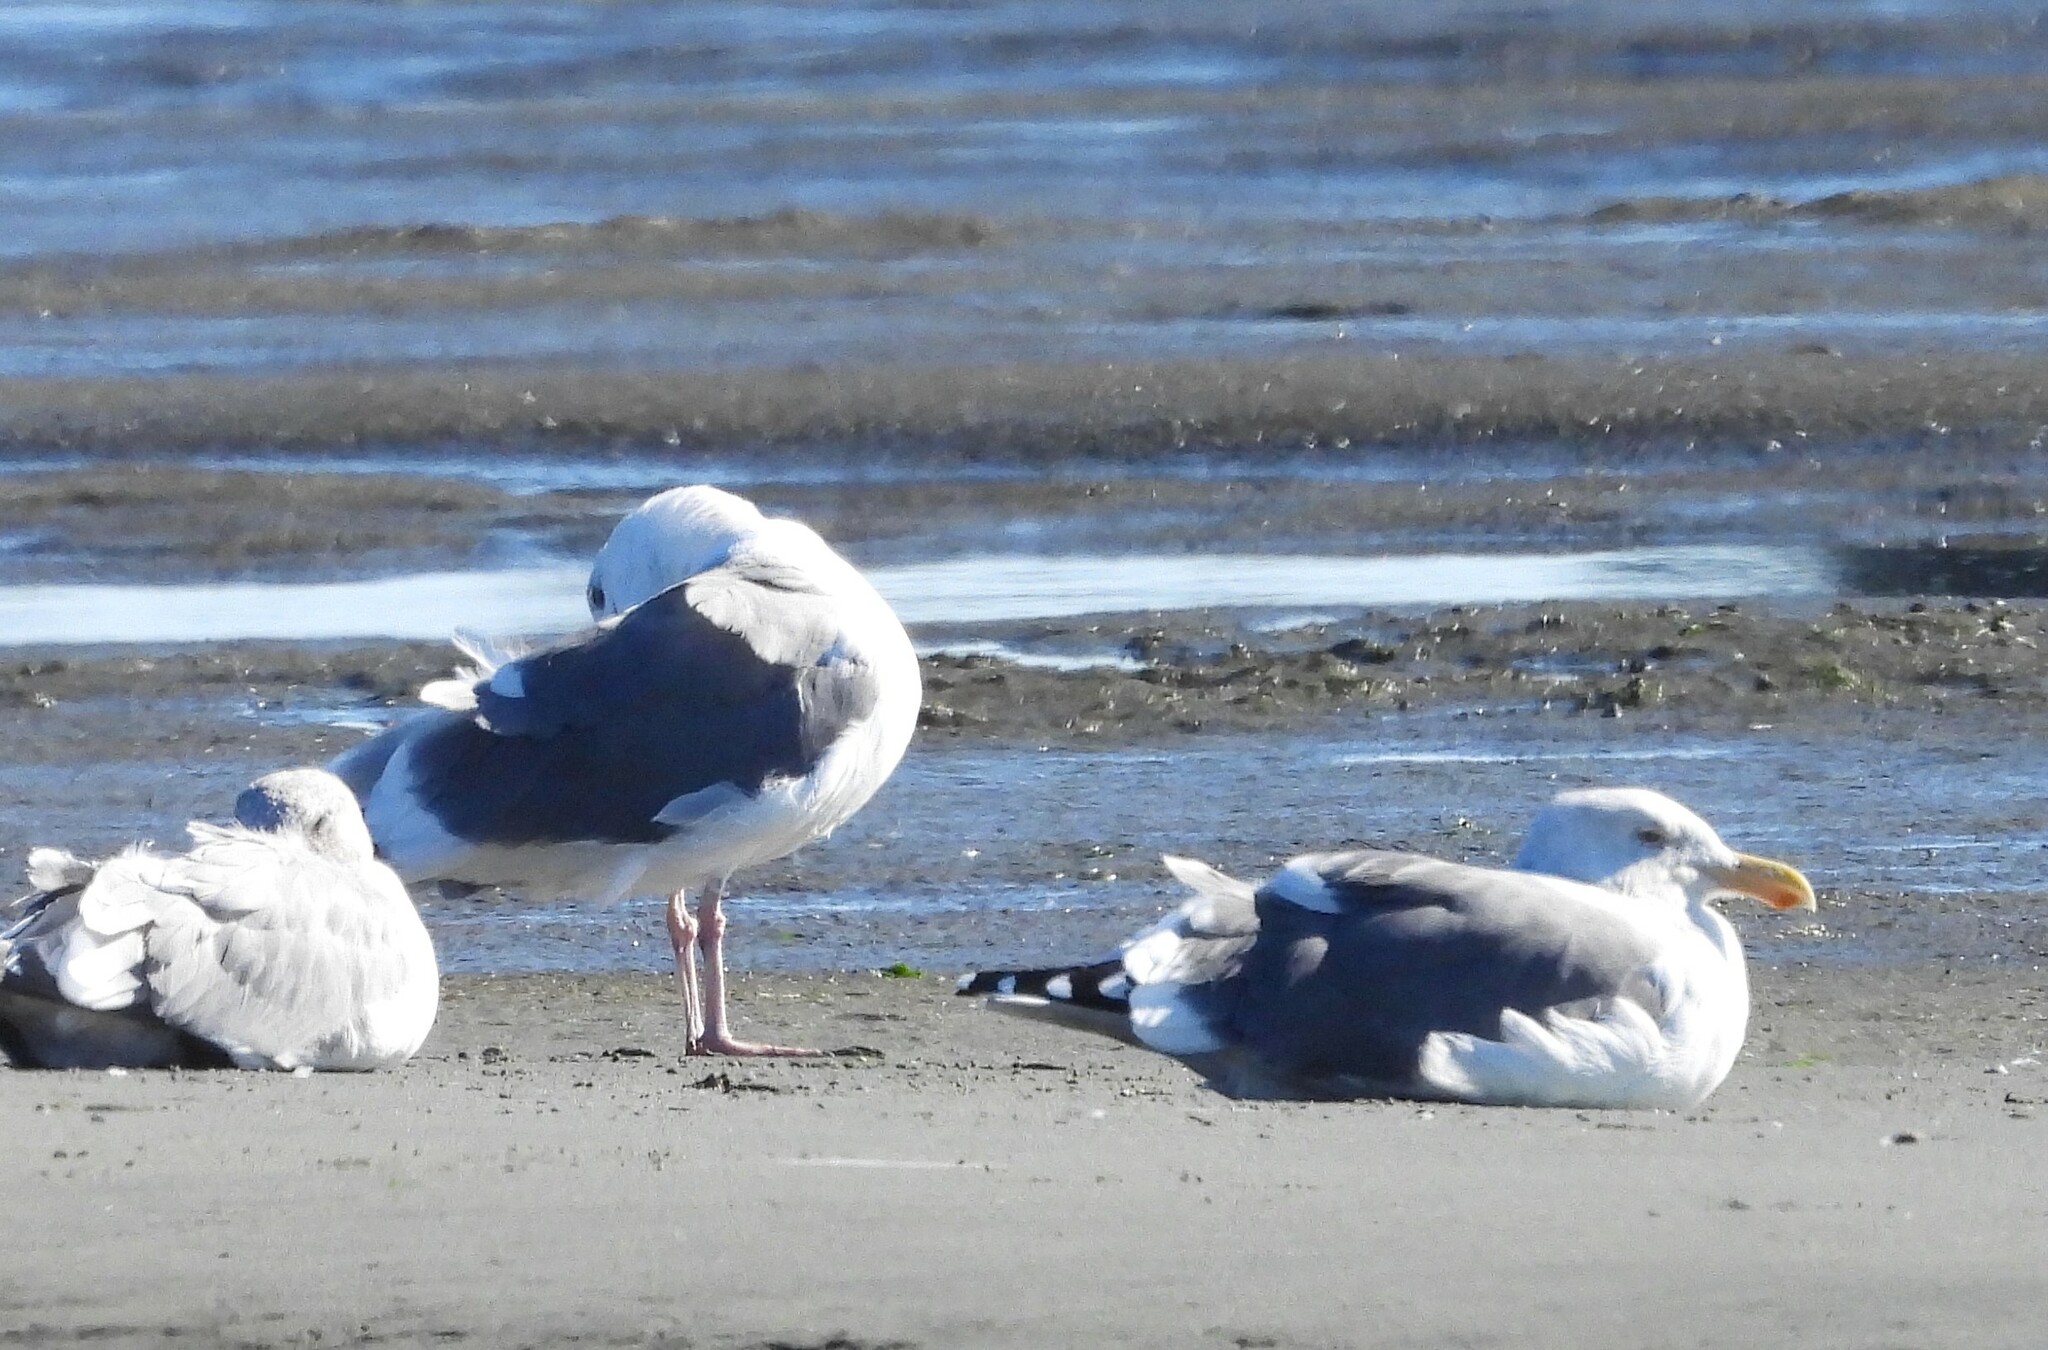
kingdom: Animalia
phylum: Chordata
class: Aves
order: Charadriiformes
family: Laridae
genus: Larus
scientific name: Larus occidentalis
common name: Western gull
